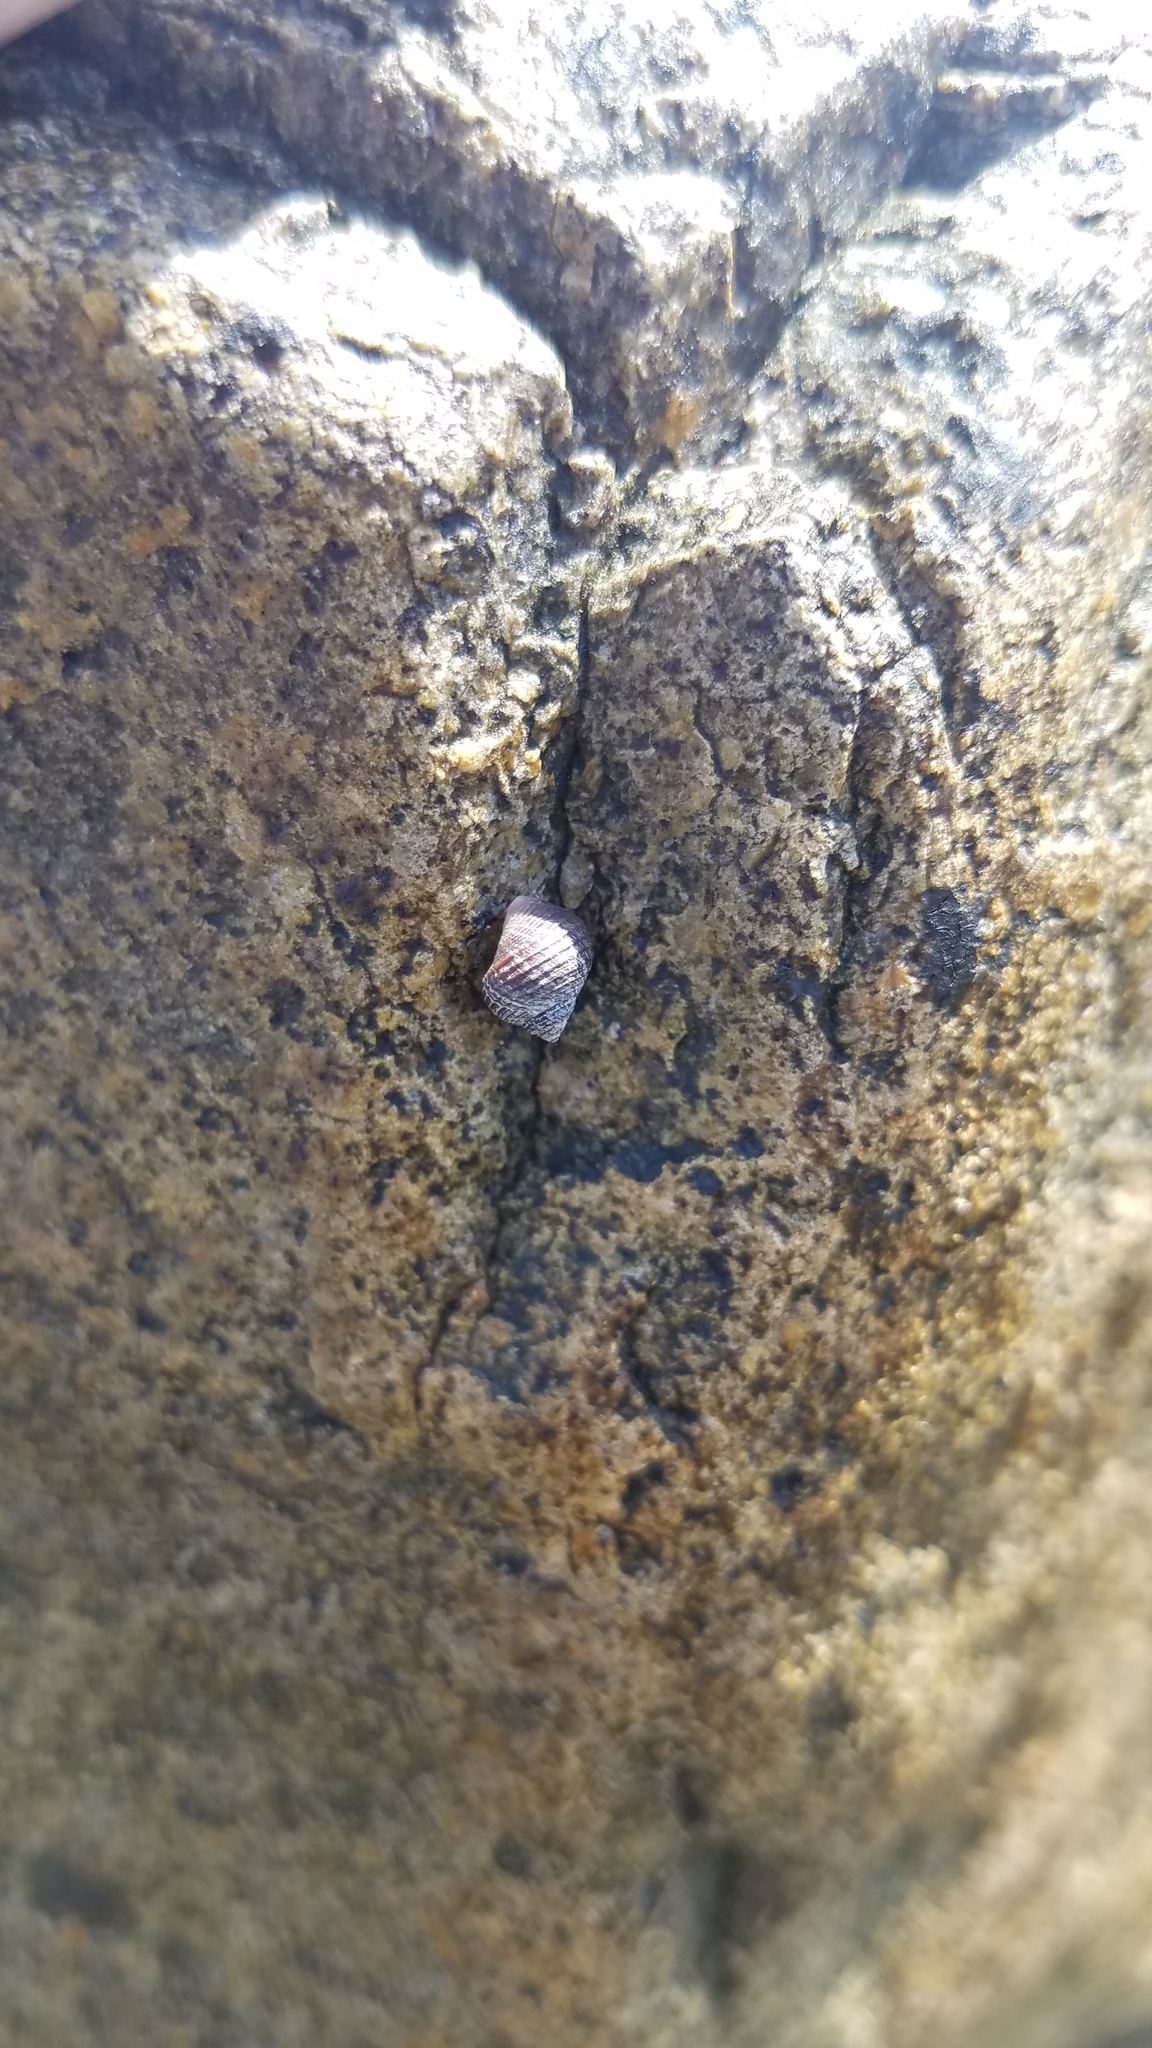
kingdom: Animalia
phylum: Mollusca
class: Gastropoda
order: Littorinimorpha
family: Littorinidae
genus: Littorina
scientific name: Littorina littorea
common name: Common periwinkle
